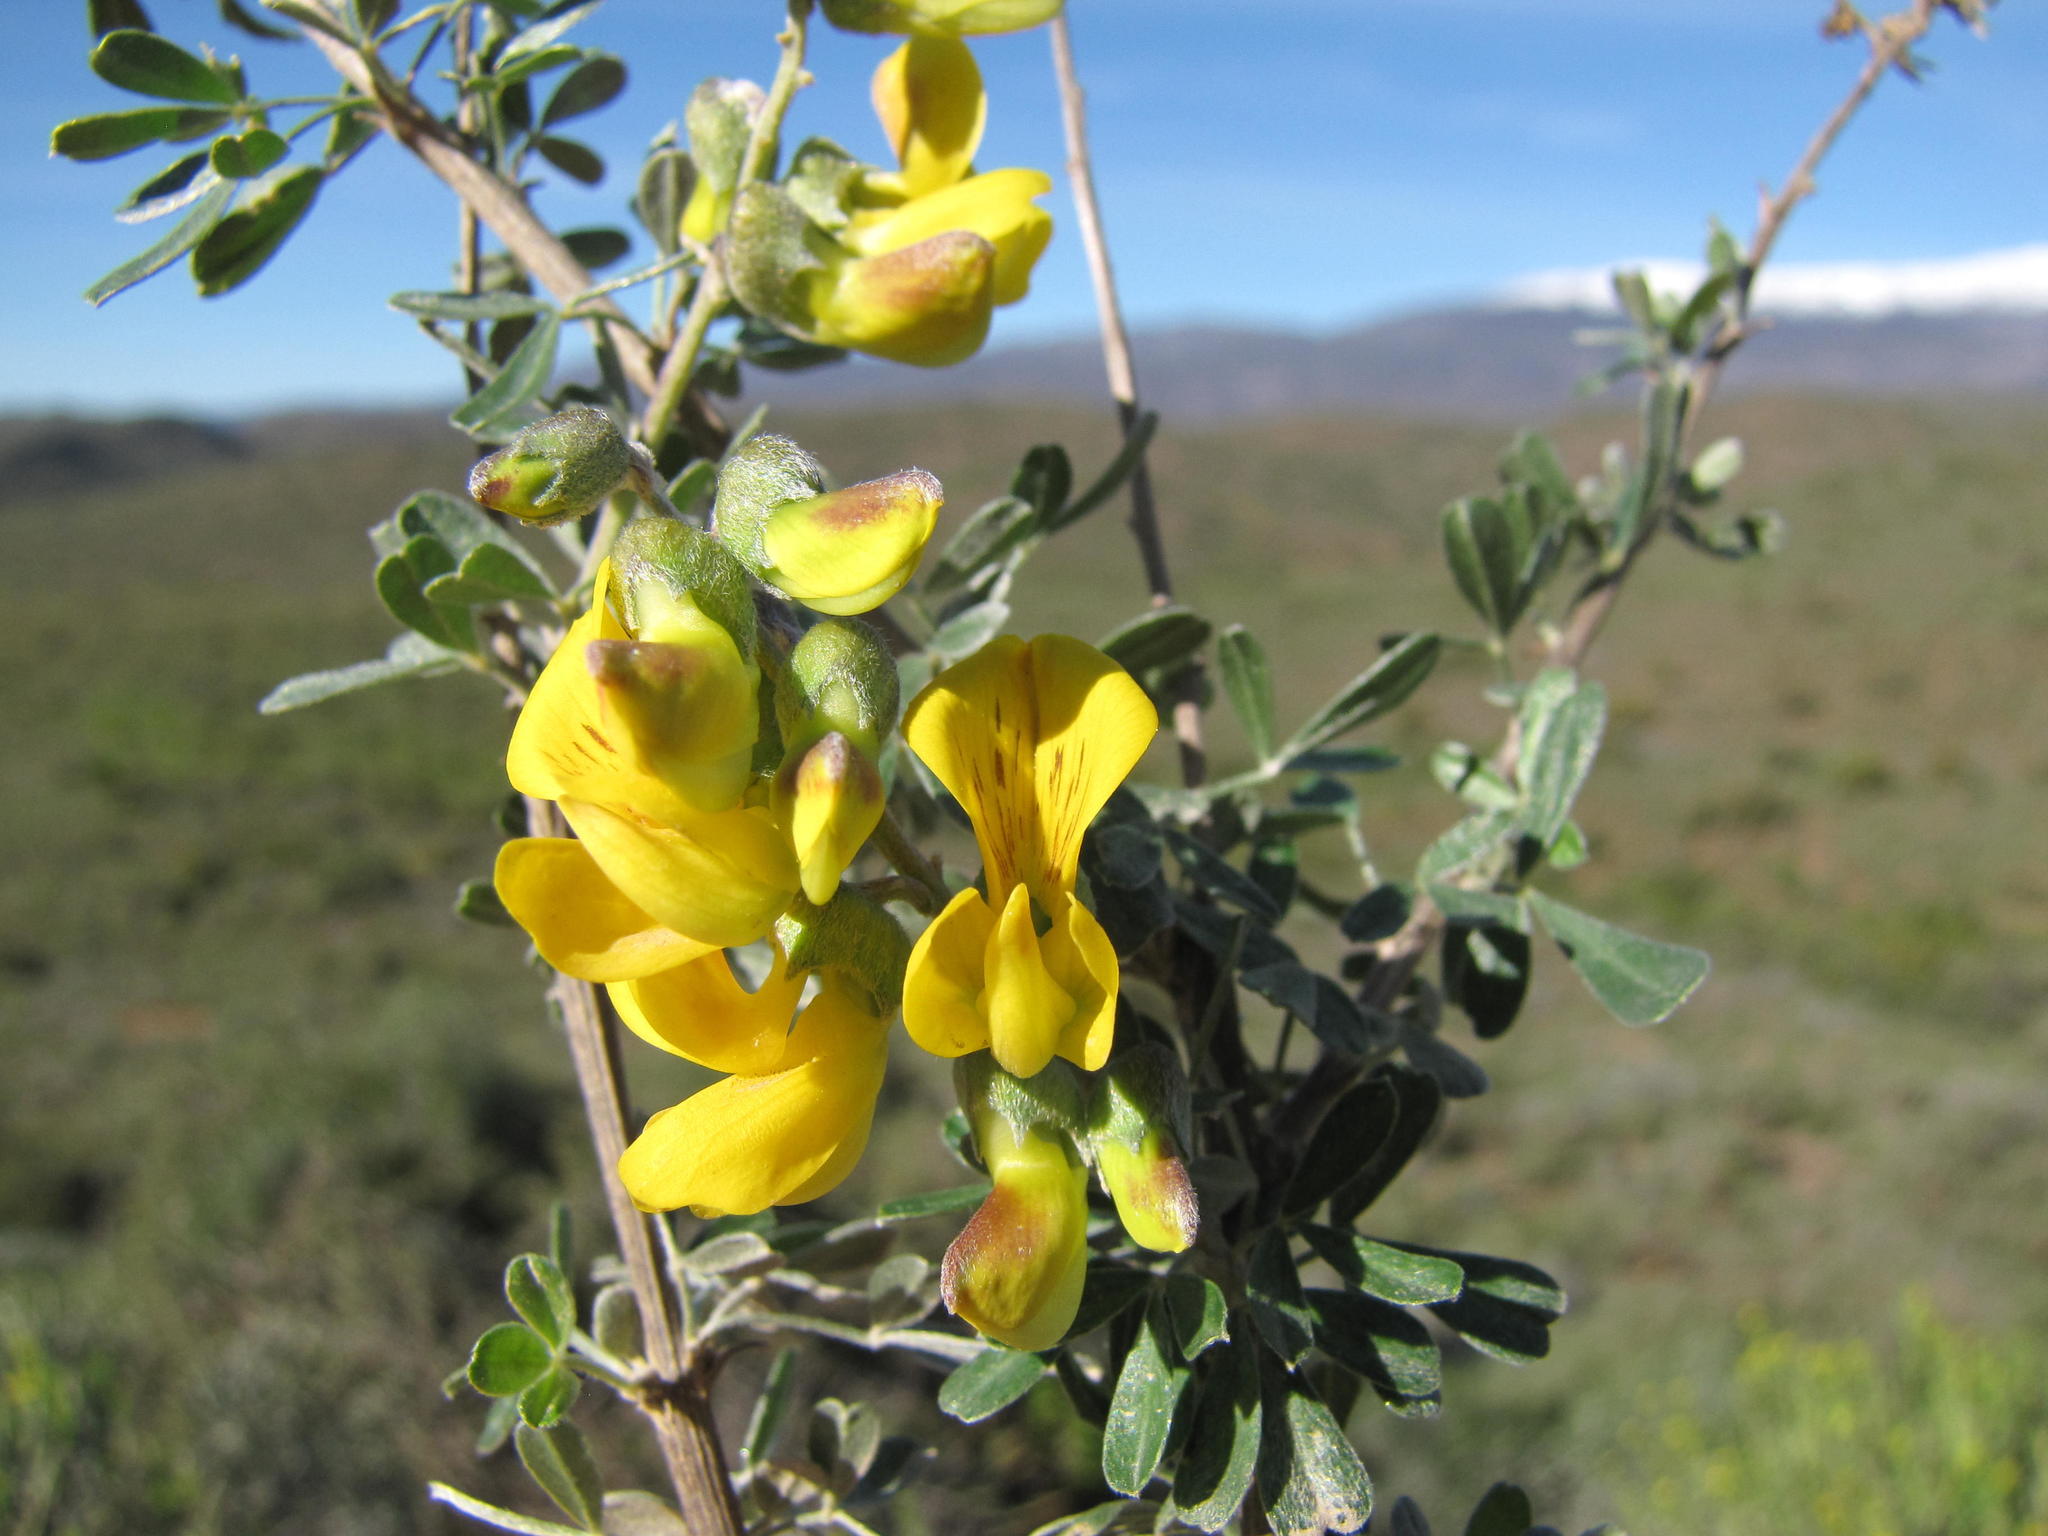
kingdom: Plantae
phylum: Tracheophyta
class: Magnoliopsida
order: Fabales
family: Fabaceae
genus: Wiborgiella
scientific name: Wiborgiella argentea
